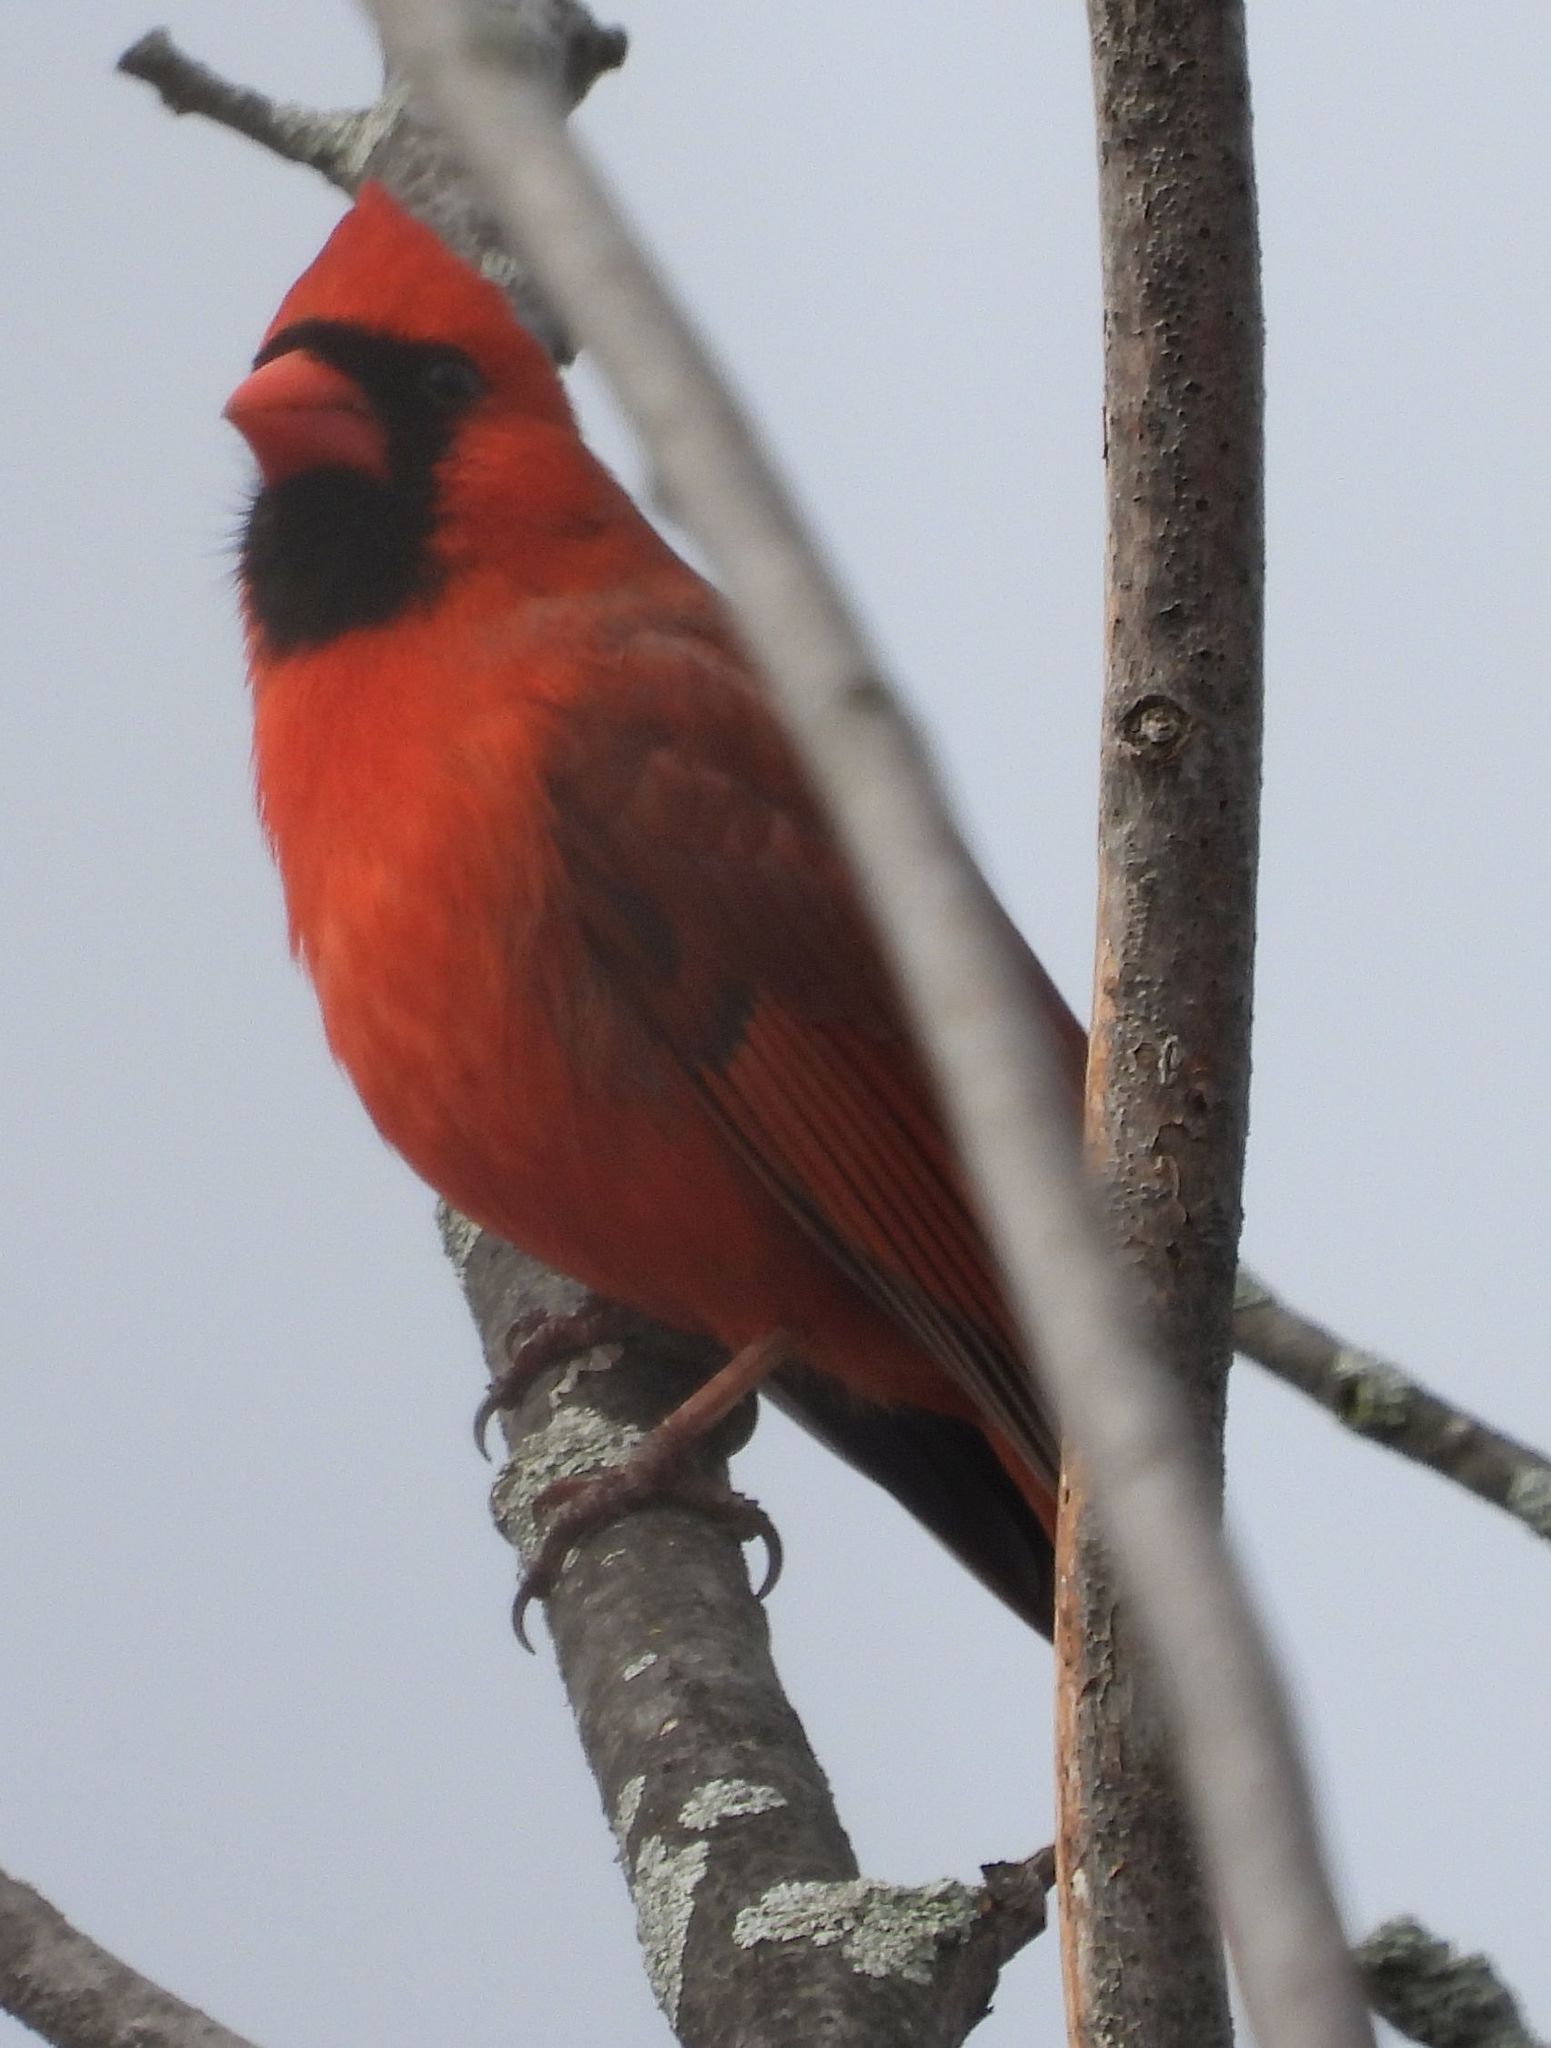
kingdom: Animalia
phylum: Chordata
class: Aves
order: Passeriformes
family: Cardinalidae
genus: Cardinalis
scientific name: Cardinalis cardinalis
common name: Northern cardinal
